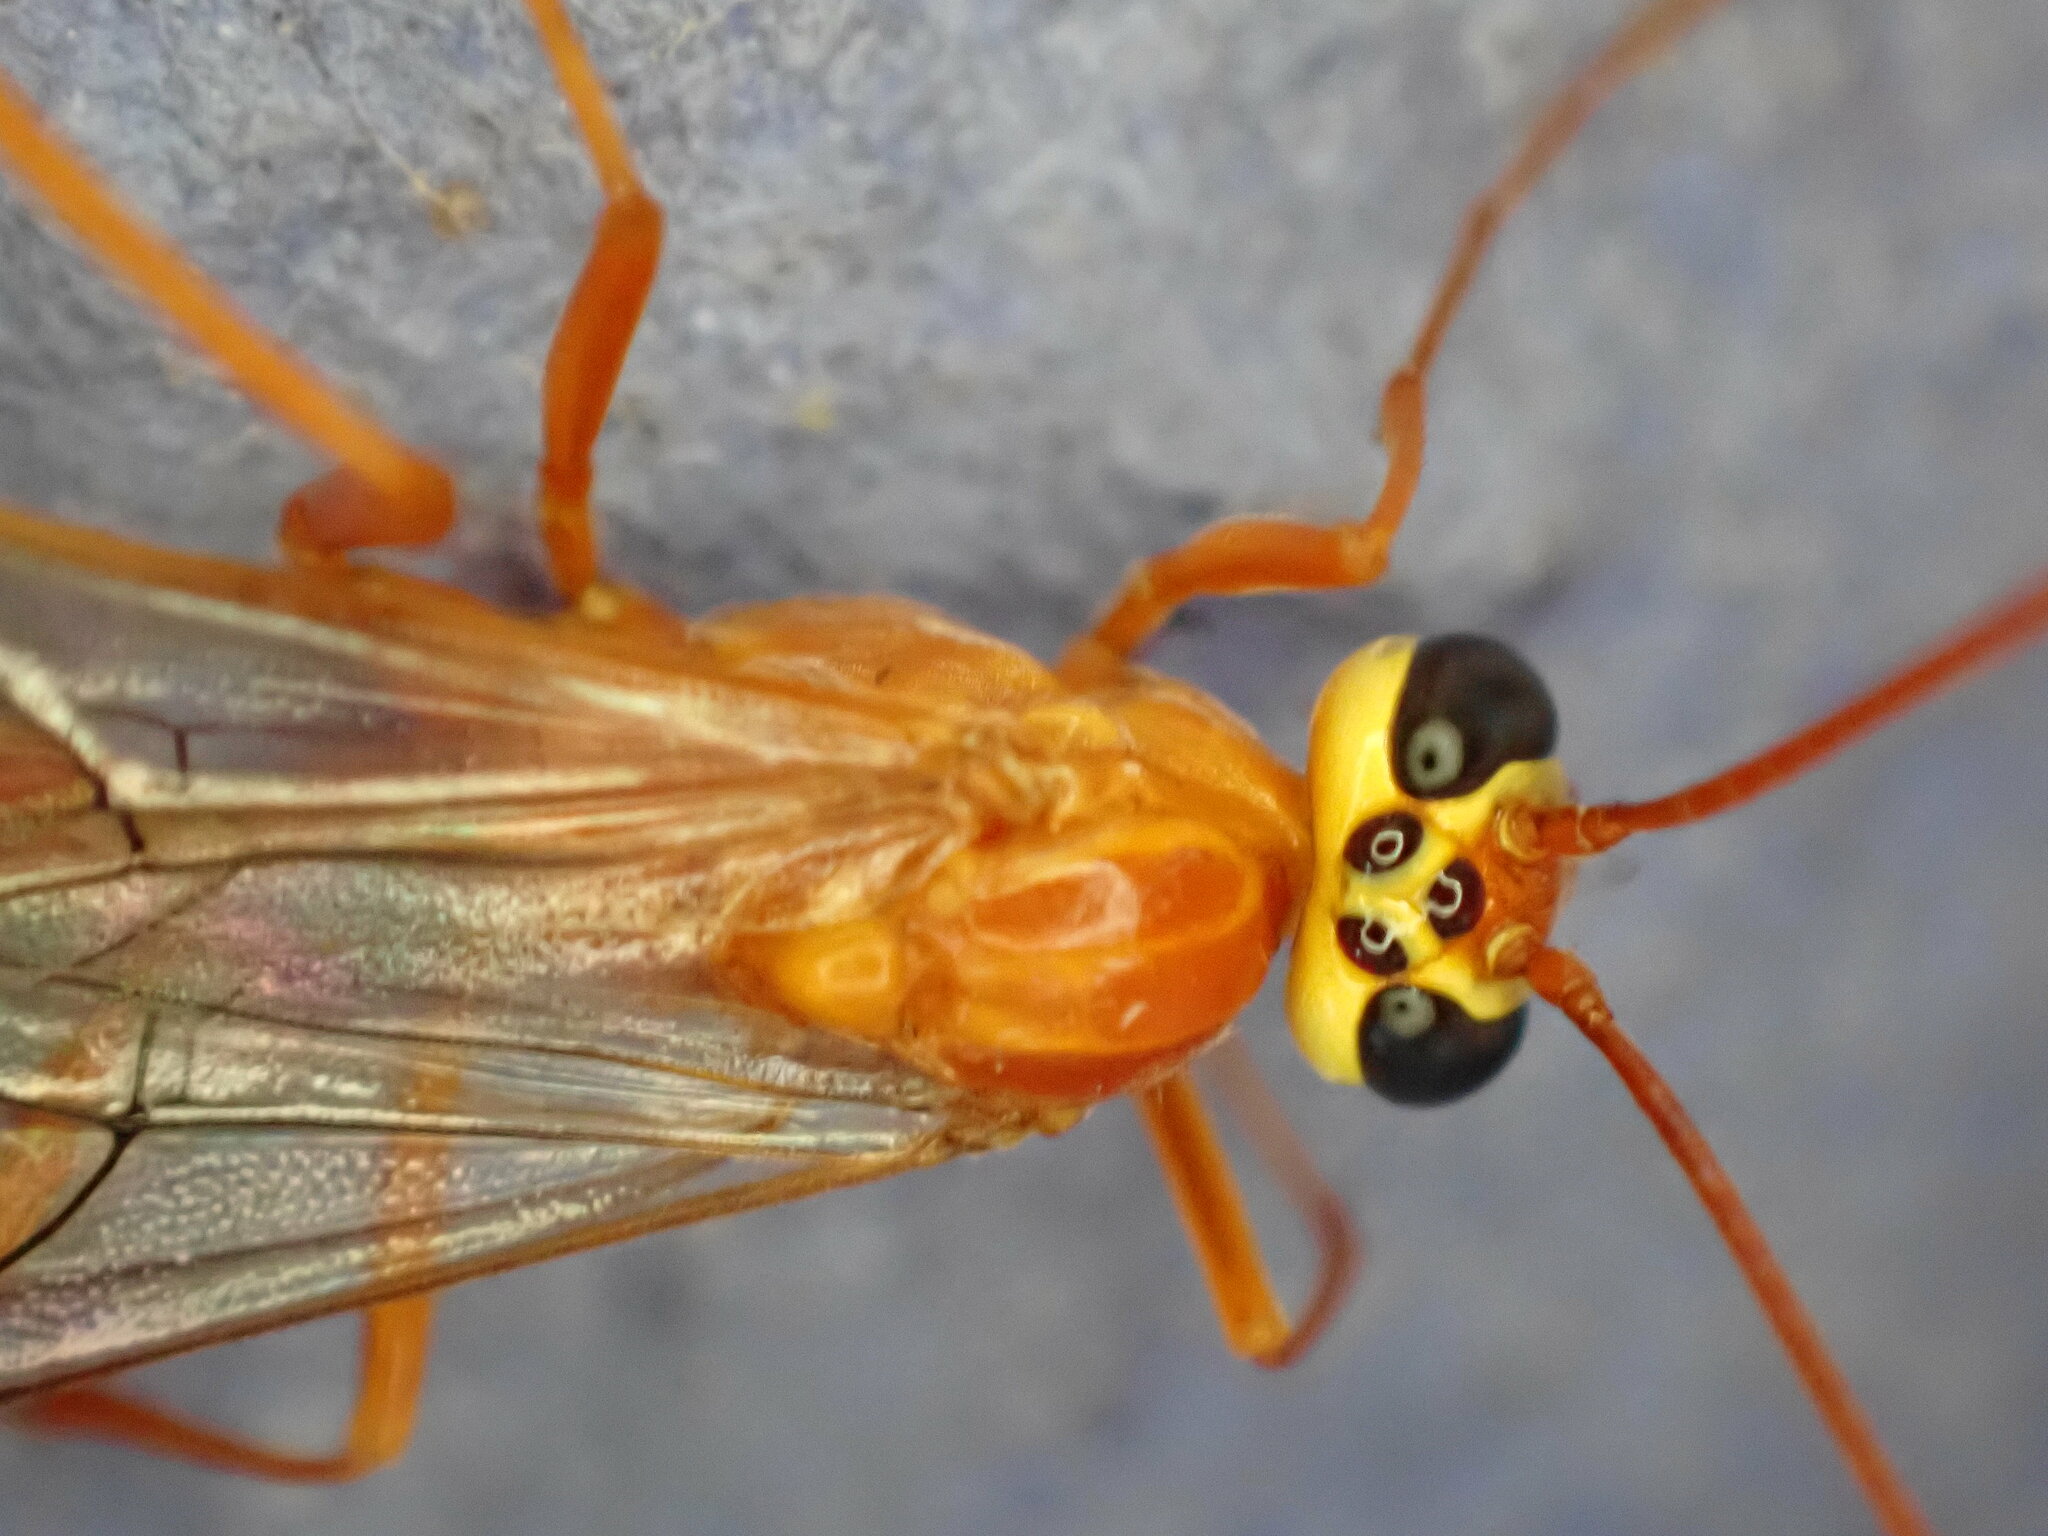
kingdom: Animalia
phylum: Arthropoda
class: Insecta
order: Hymenoptera
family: Ichneumonidae
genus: Ophion
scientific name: Ophion minutus
